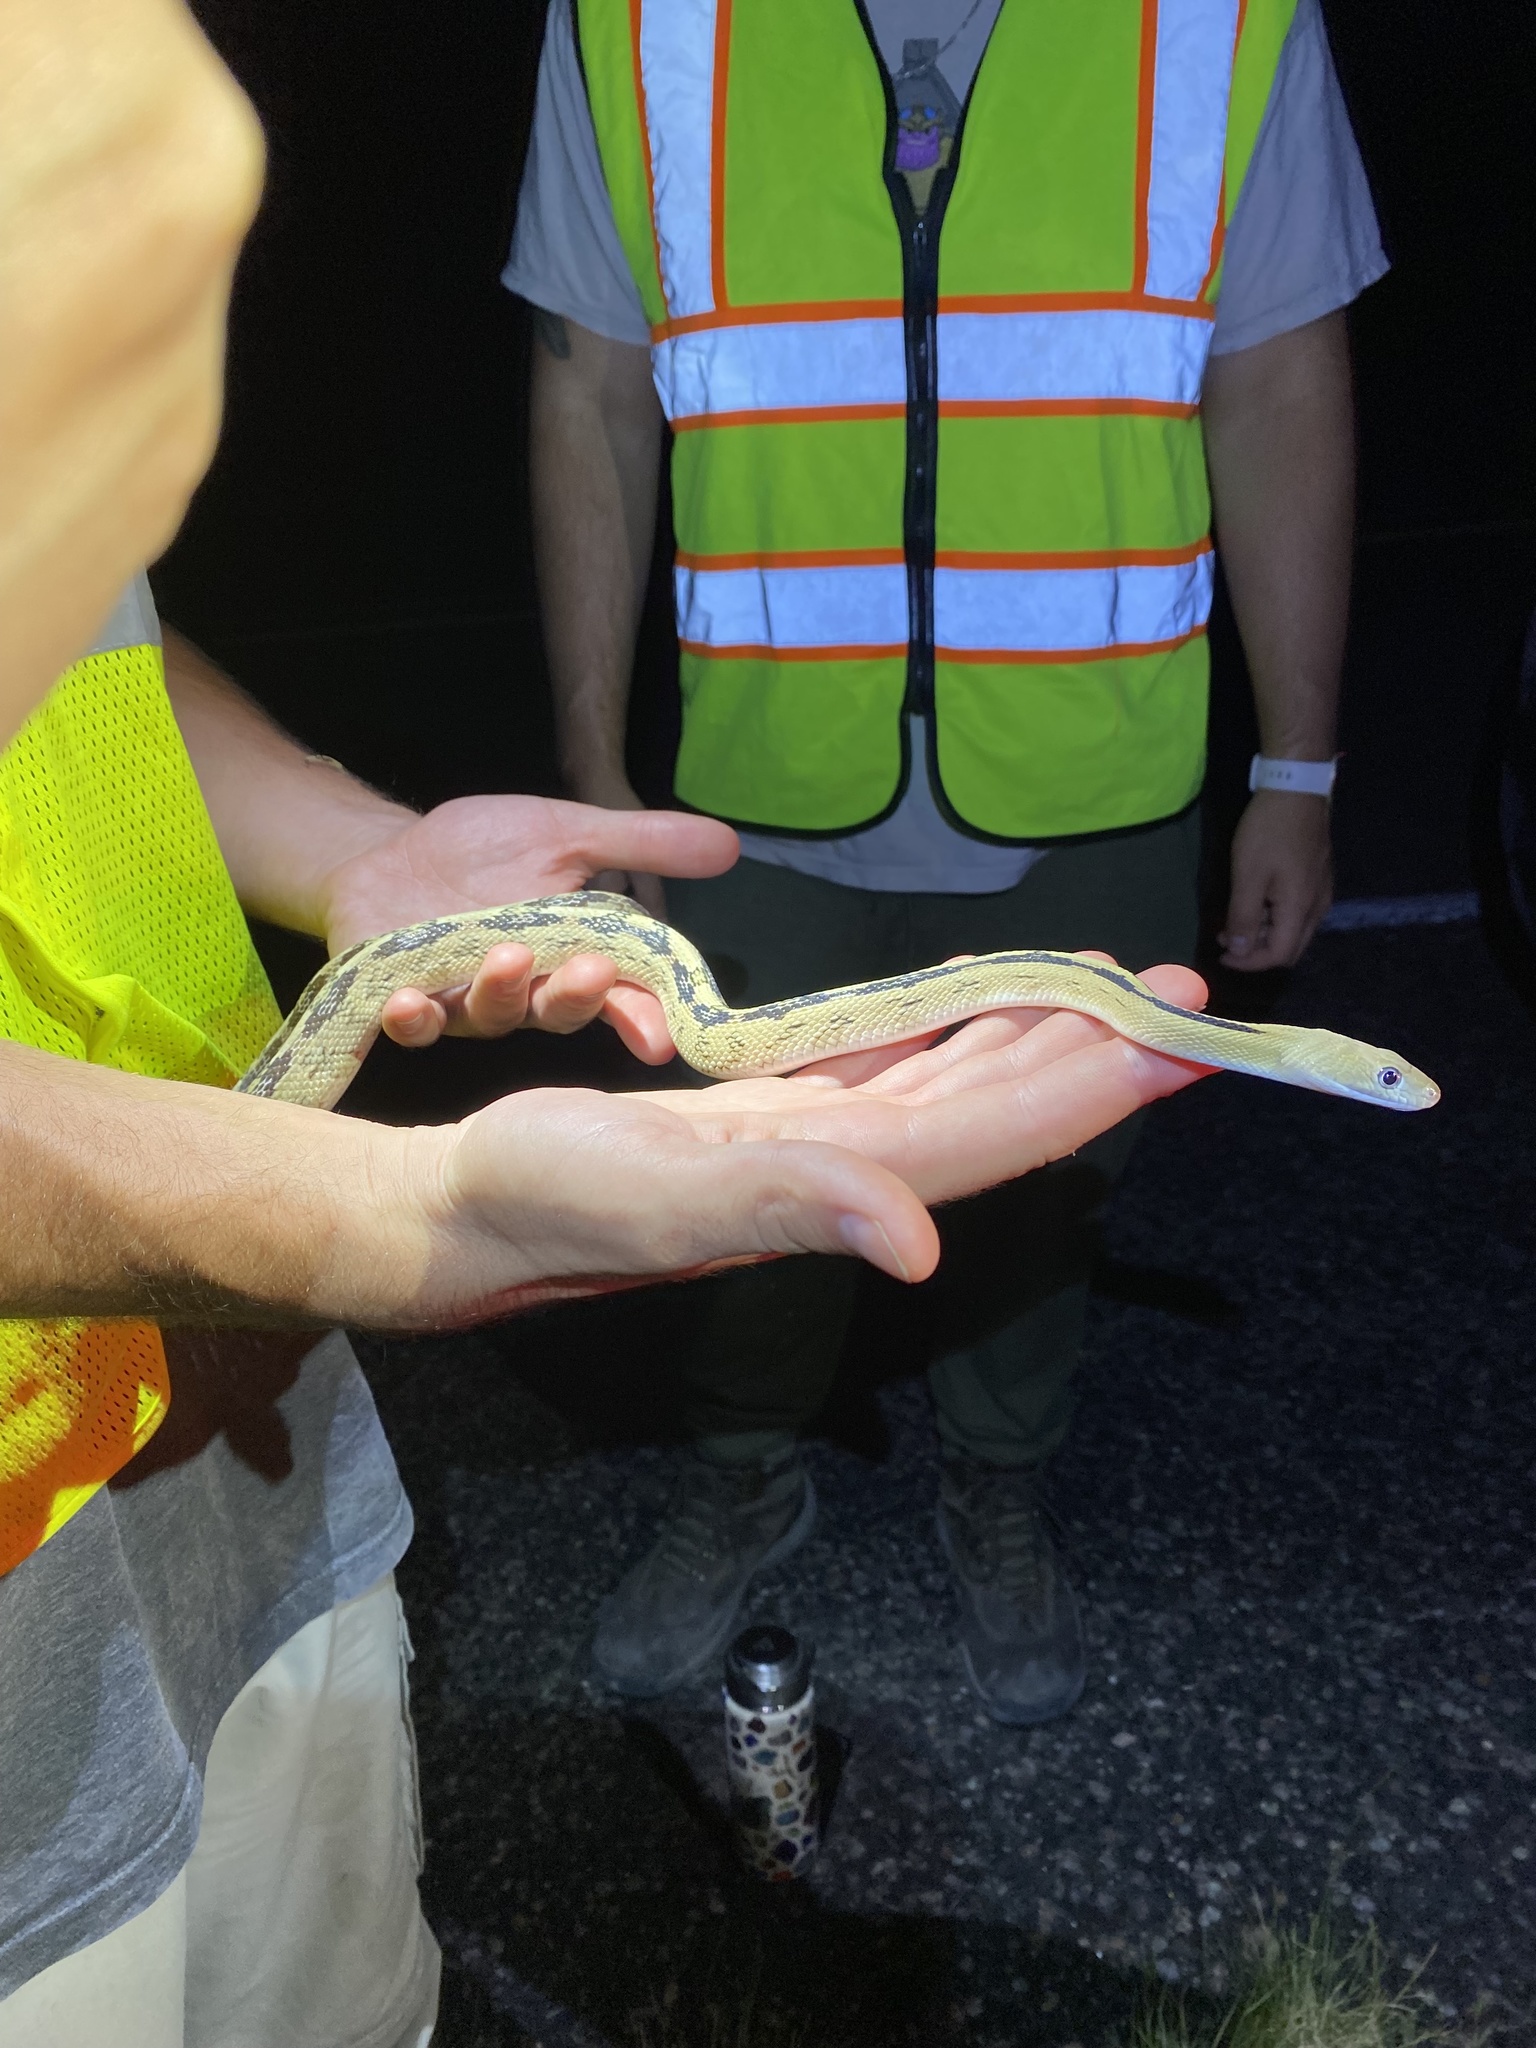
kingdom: Animalia
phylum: Chordata
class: Squamata
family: Colubridae
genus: Bogertophis
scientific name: Bogertophis subocularis
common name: Trans-pecos rat snake
